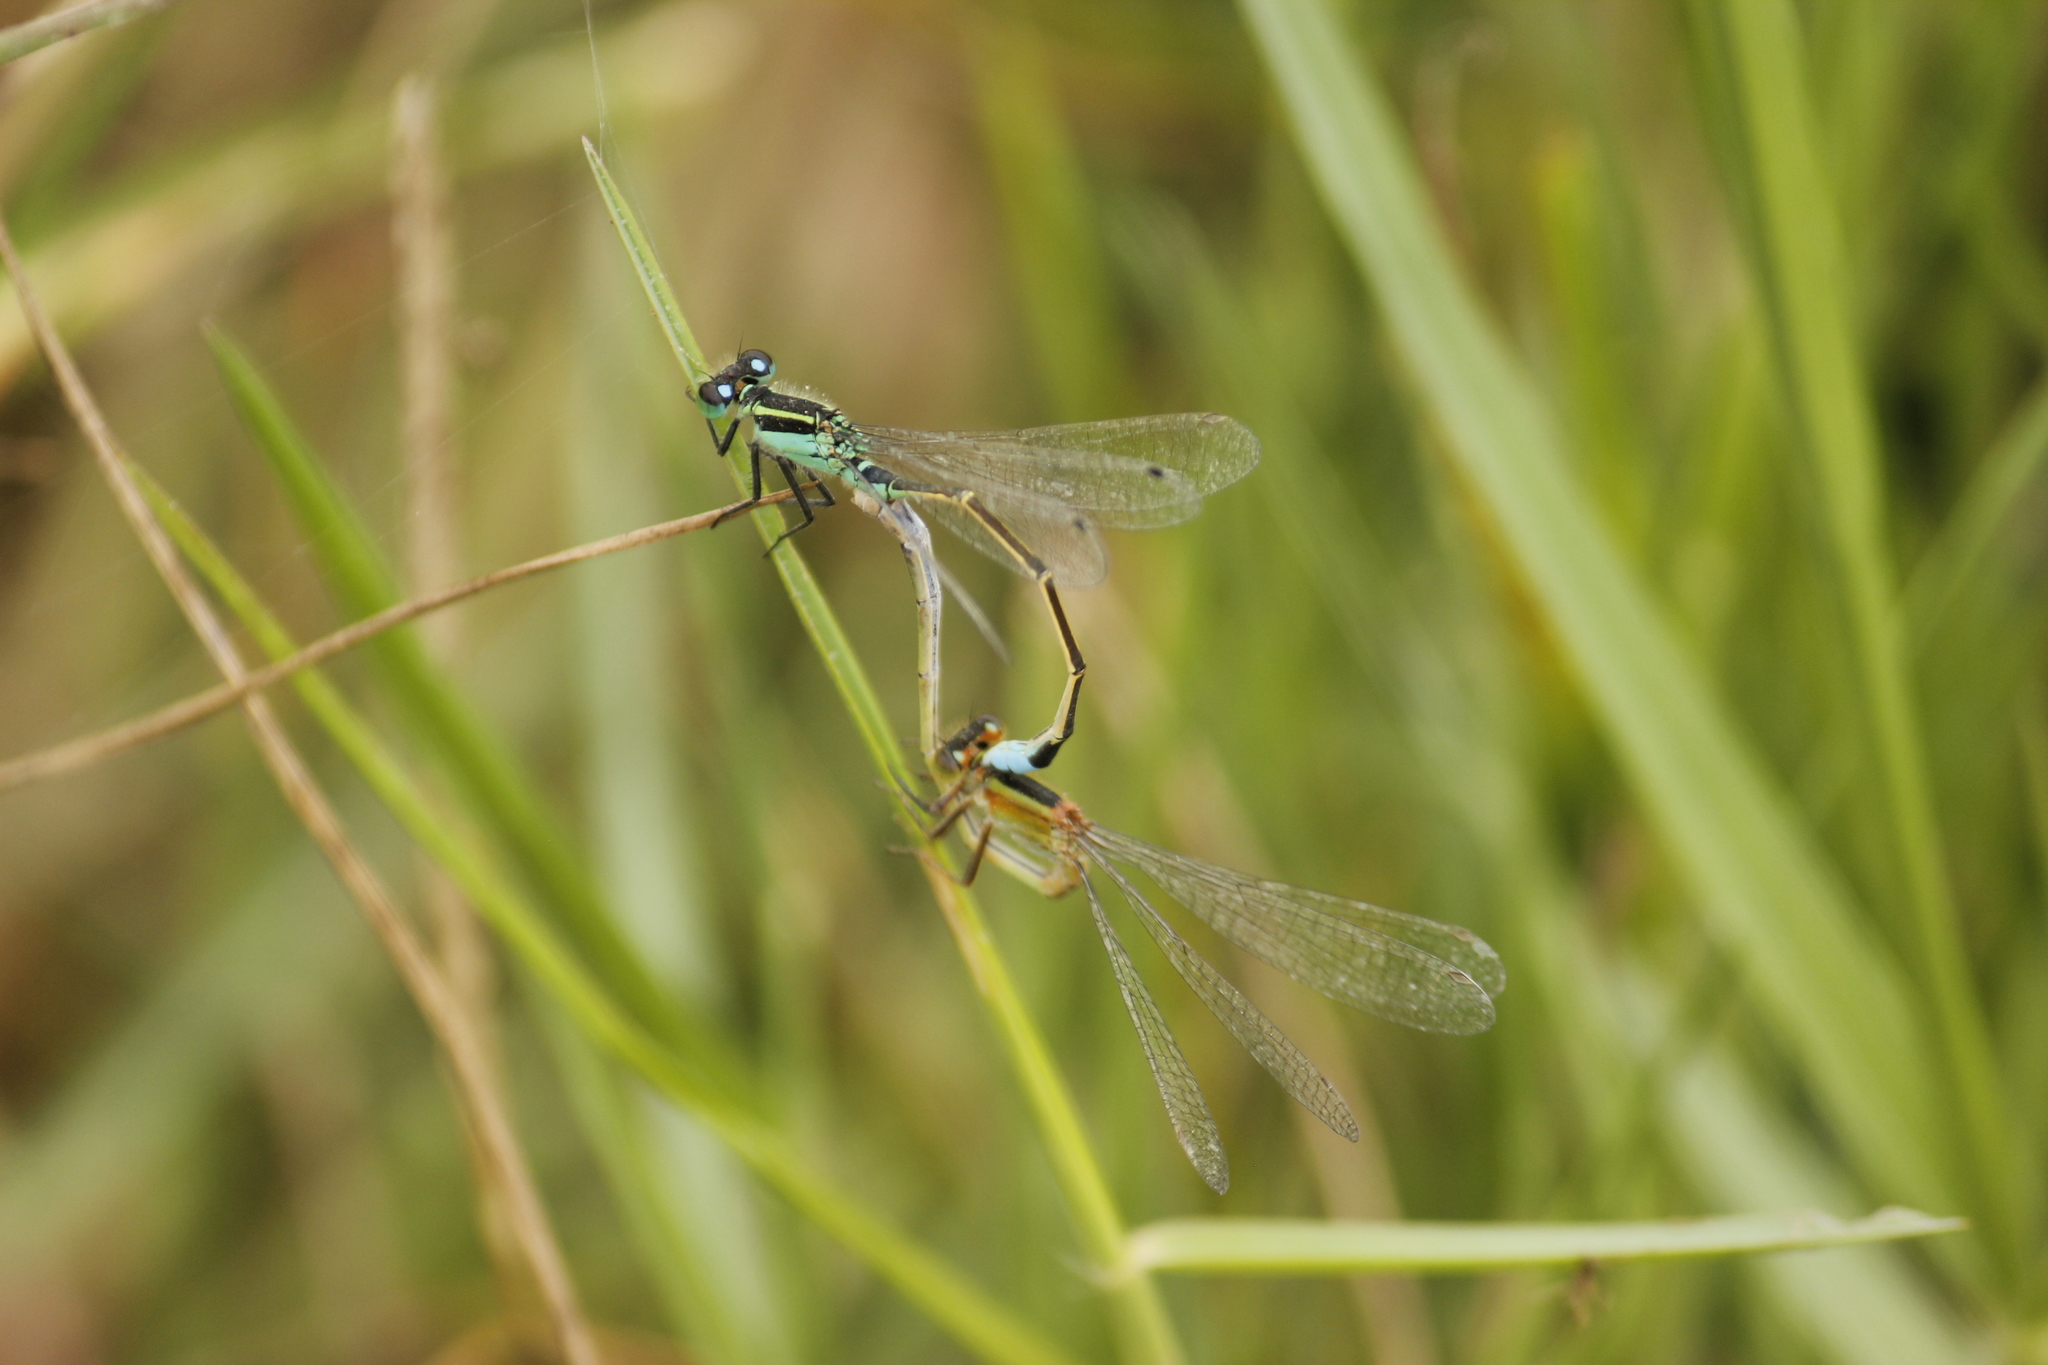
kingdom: Animalia
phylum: Arthropoda
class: Insecta
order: Odonata
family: Coenagrionidae
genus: Ischnura
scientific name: Ischnura ramburii
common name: Rambur's forktail
